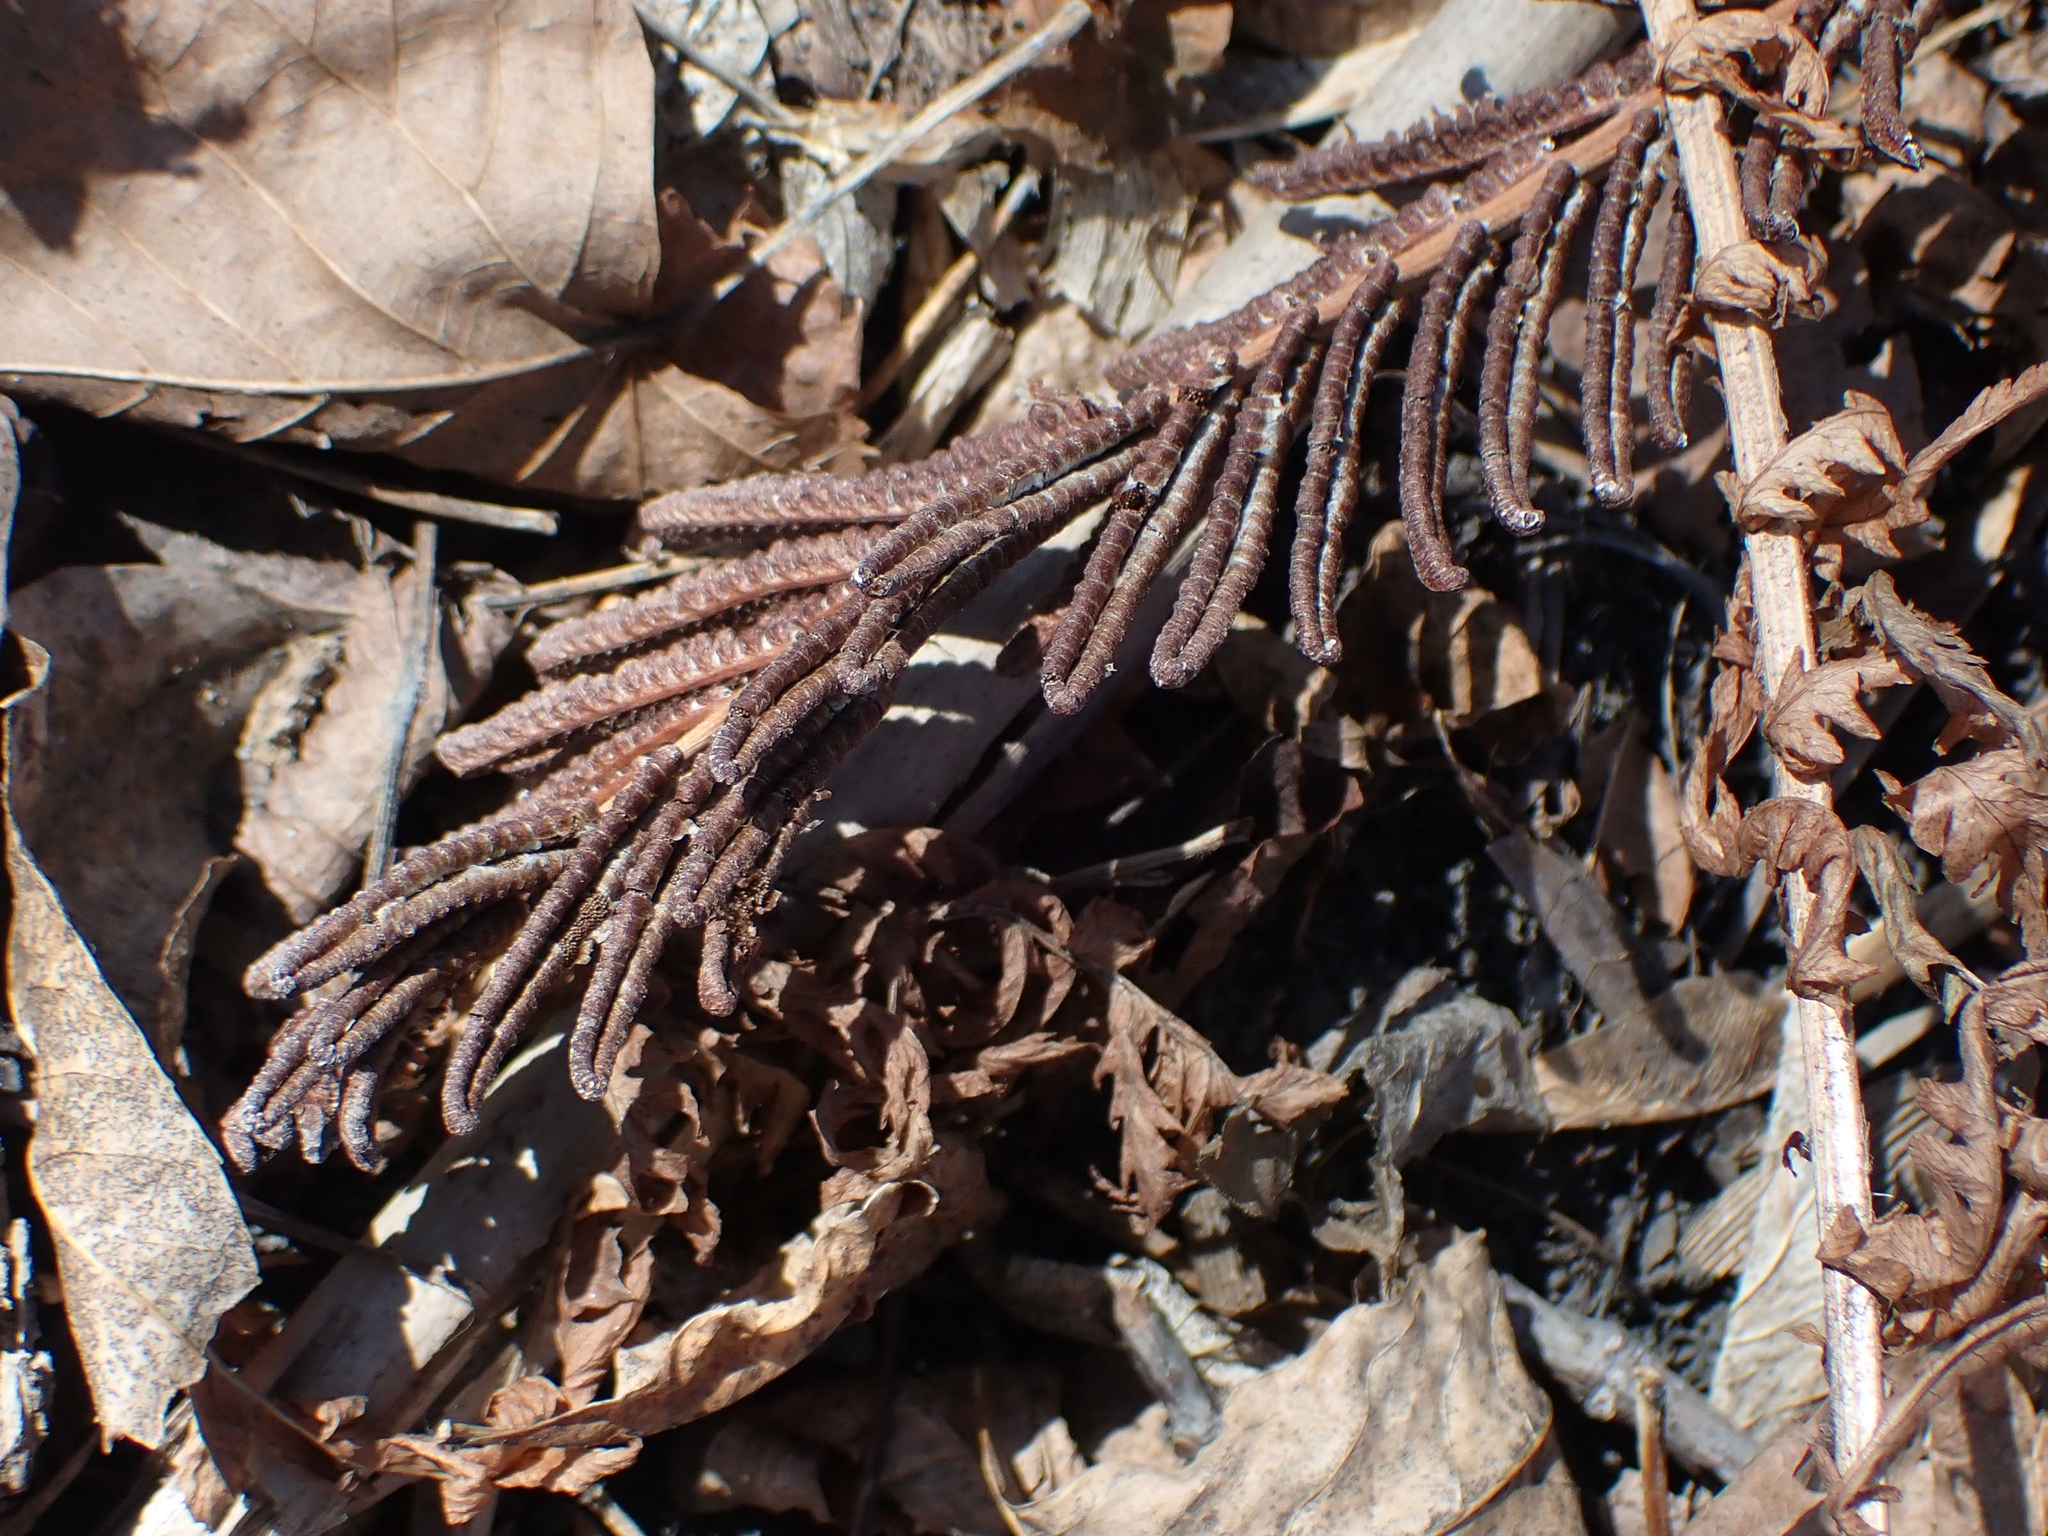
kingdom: Plantae
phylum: Tracheophyta
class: Polypodiopsida
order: Polypodiales
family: Onocleaceae
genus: Matteuccia
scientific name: Matteuccia struthiopteris
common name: Ostrich fern
